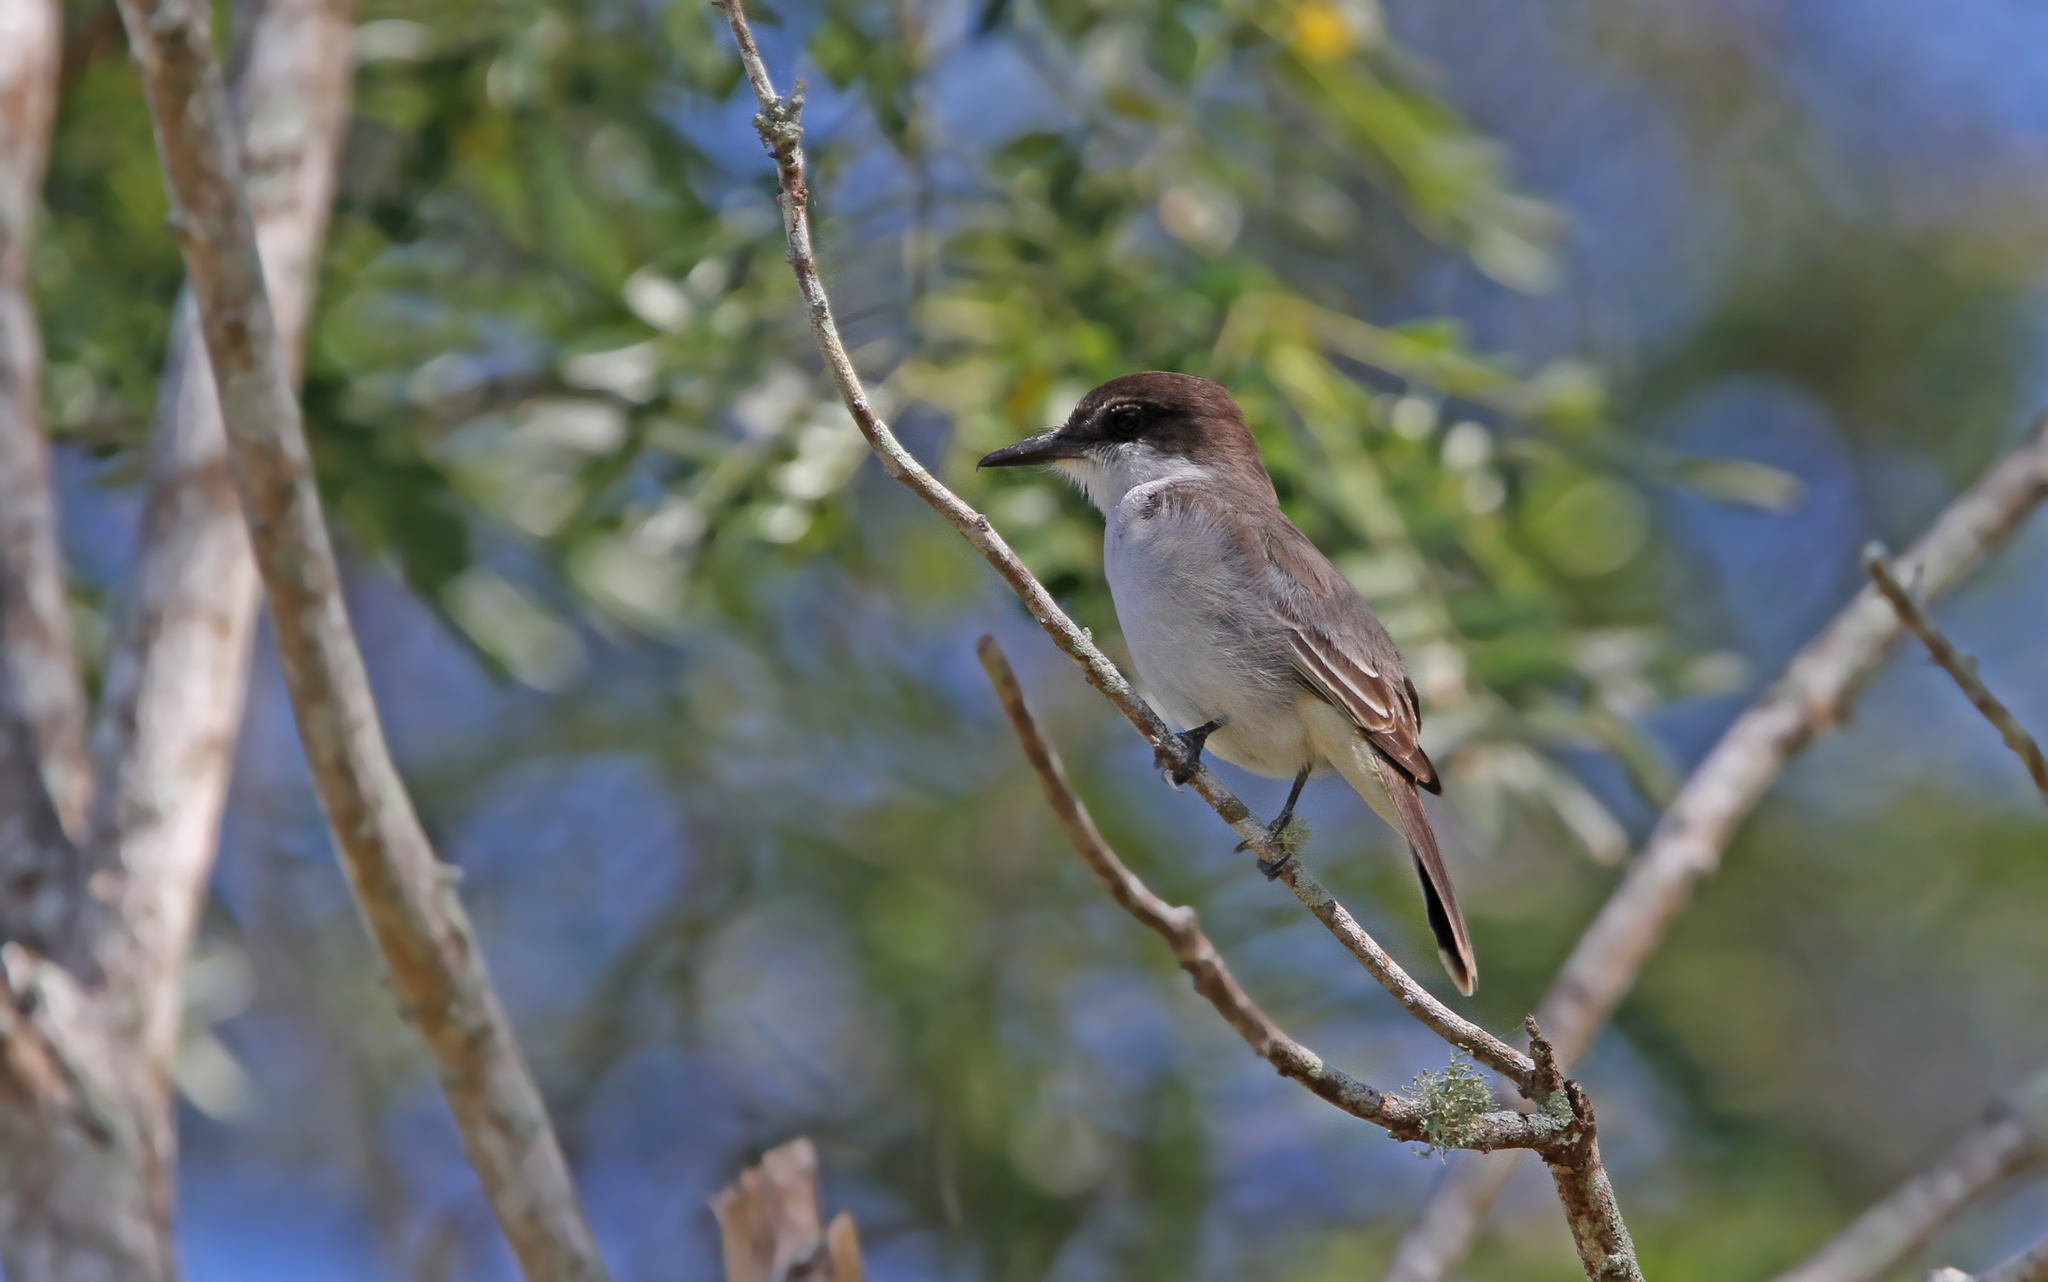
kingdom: Animalia
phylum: Chordata
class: Aves
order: Passeriformes
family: Tyrannidae
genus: Tyrannus
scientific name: Tyrannus caudifasciatus
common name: Loggerhead kingbird
